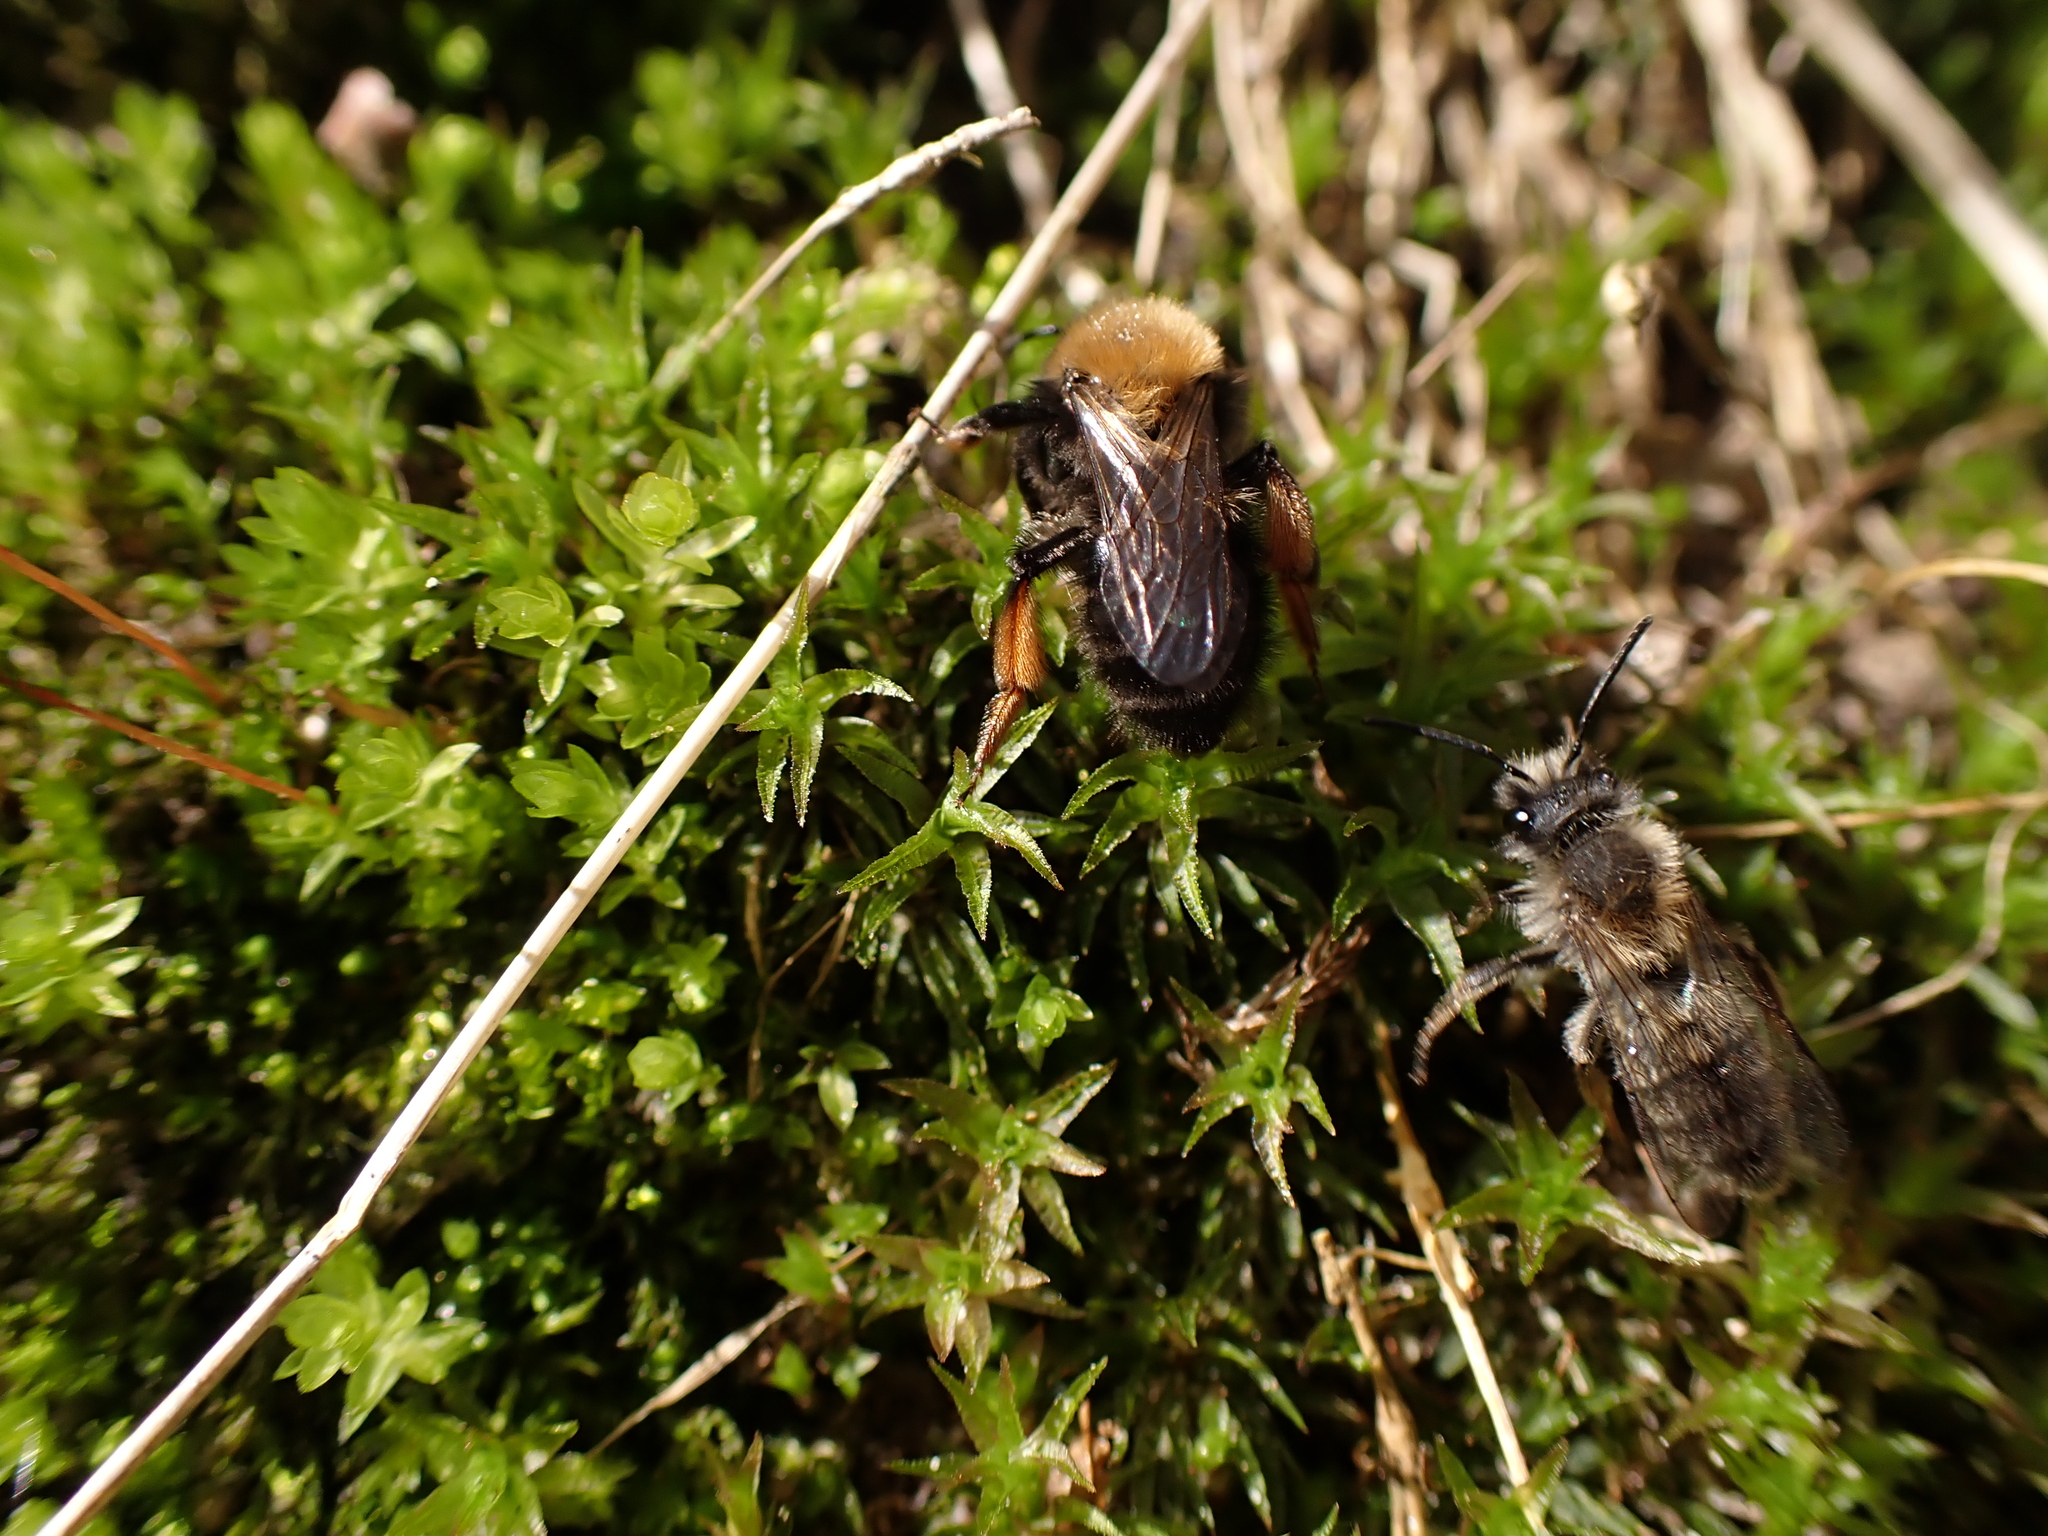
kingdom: Animalia
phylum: Arthropoda
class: Insecta
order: Hymenoptera
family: Andrenidae
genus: Andrena
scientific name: Andrena clarkella
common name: Clarke's mining bee
